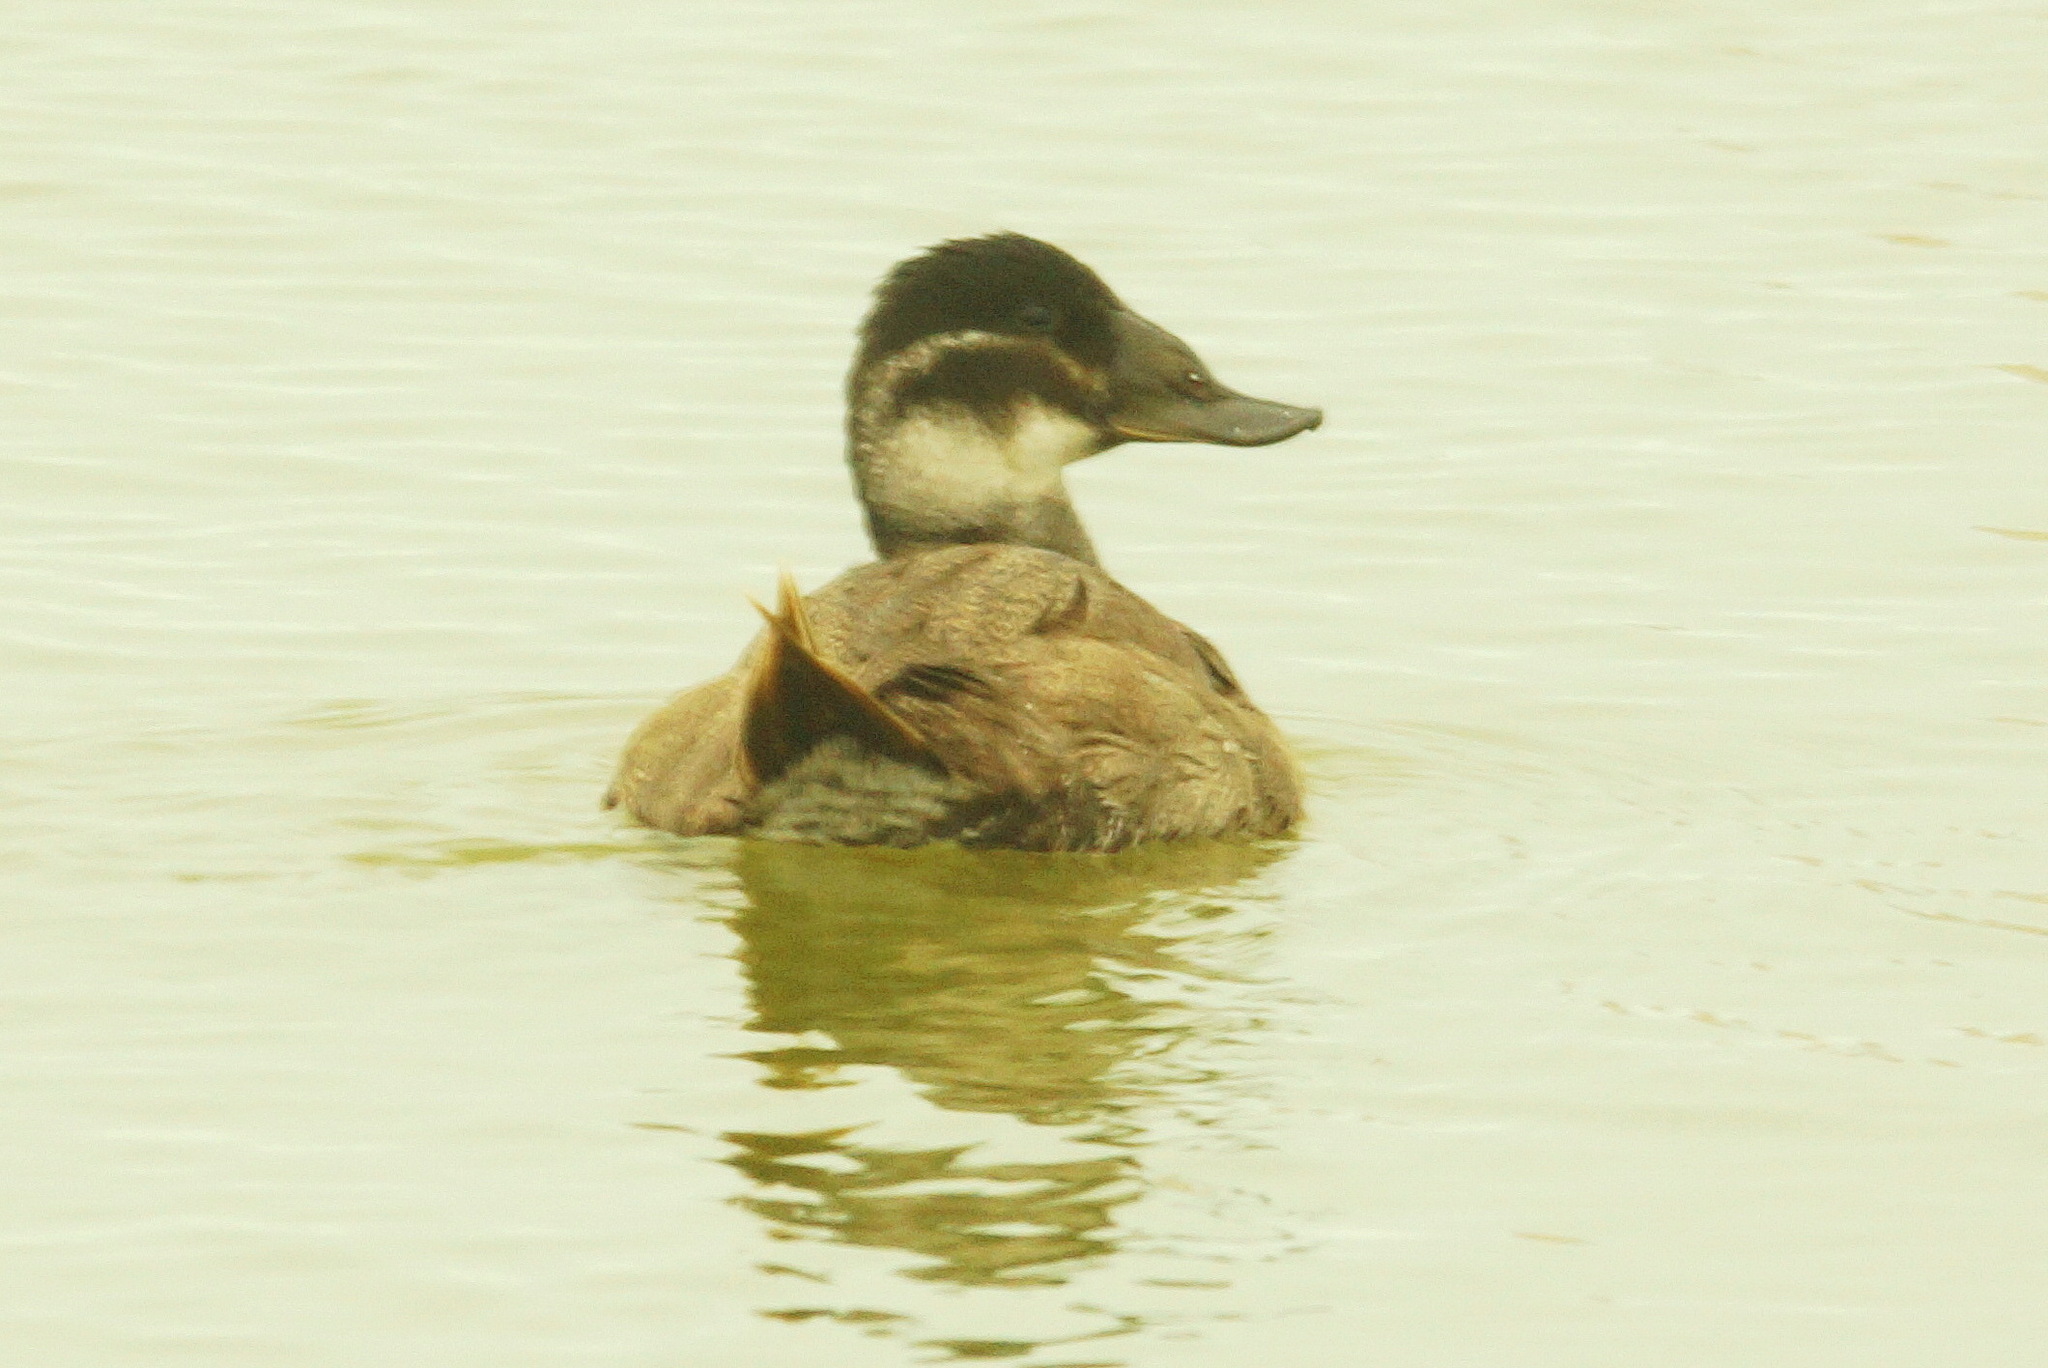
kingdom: Animalia
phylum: Chordata
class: Aves
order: Anseriformes
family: Anatidae
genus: Oxyura
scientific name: Oxyura leucocephala
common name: White-headed duck
